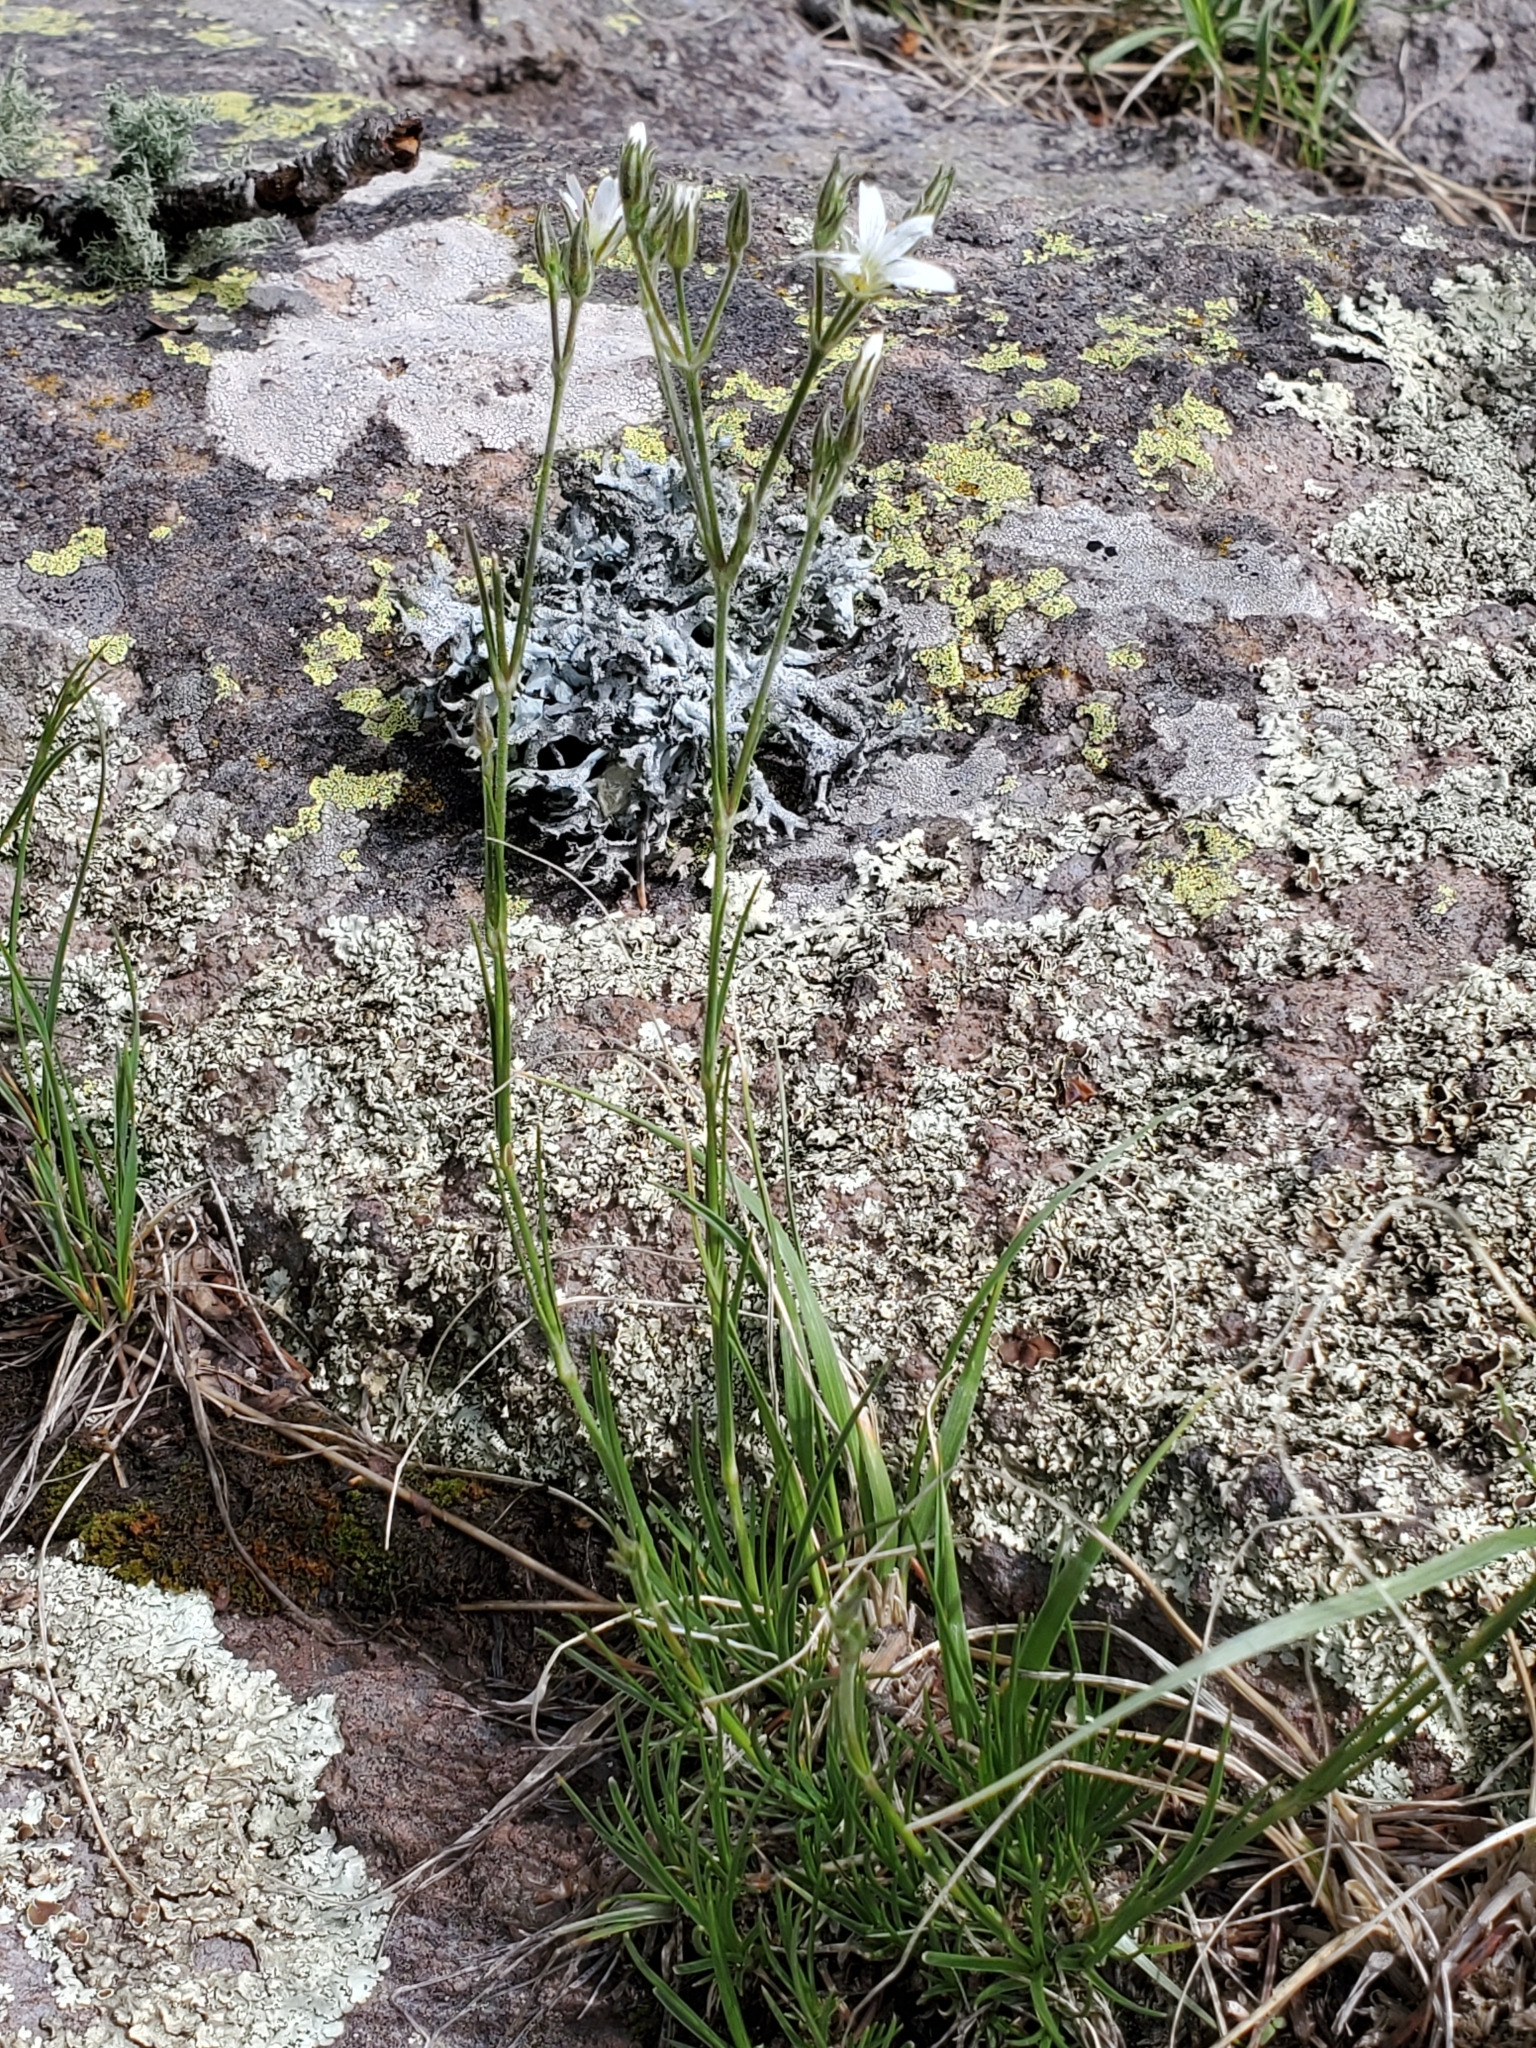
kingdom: Plantae
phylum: Tracheophyta
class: Magnoliopsida
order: Caryophyllales
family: Caryophyllaceae
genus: Eremogone
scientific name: Eremogone fendleri
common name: Fendler's sandwort
